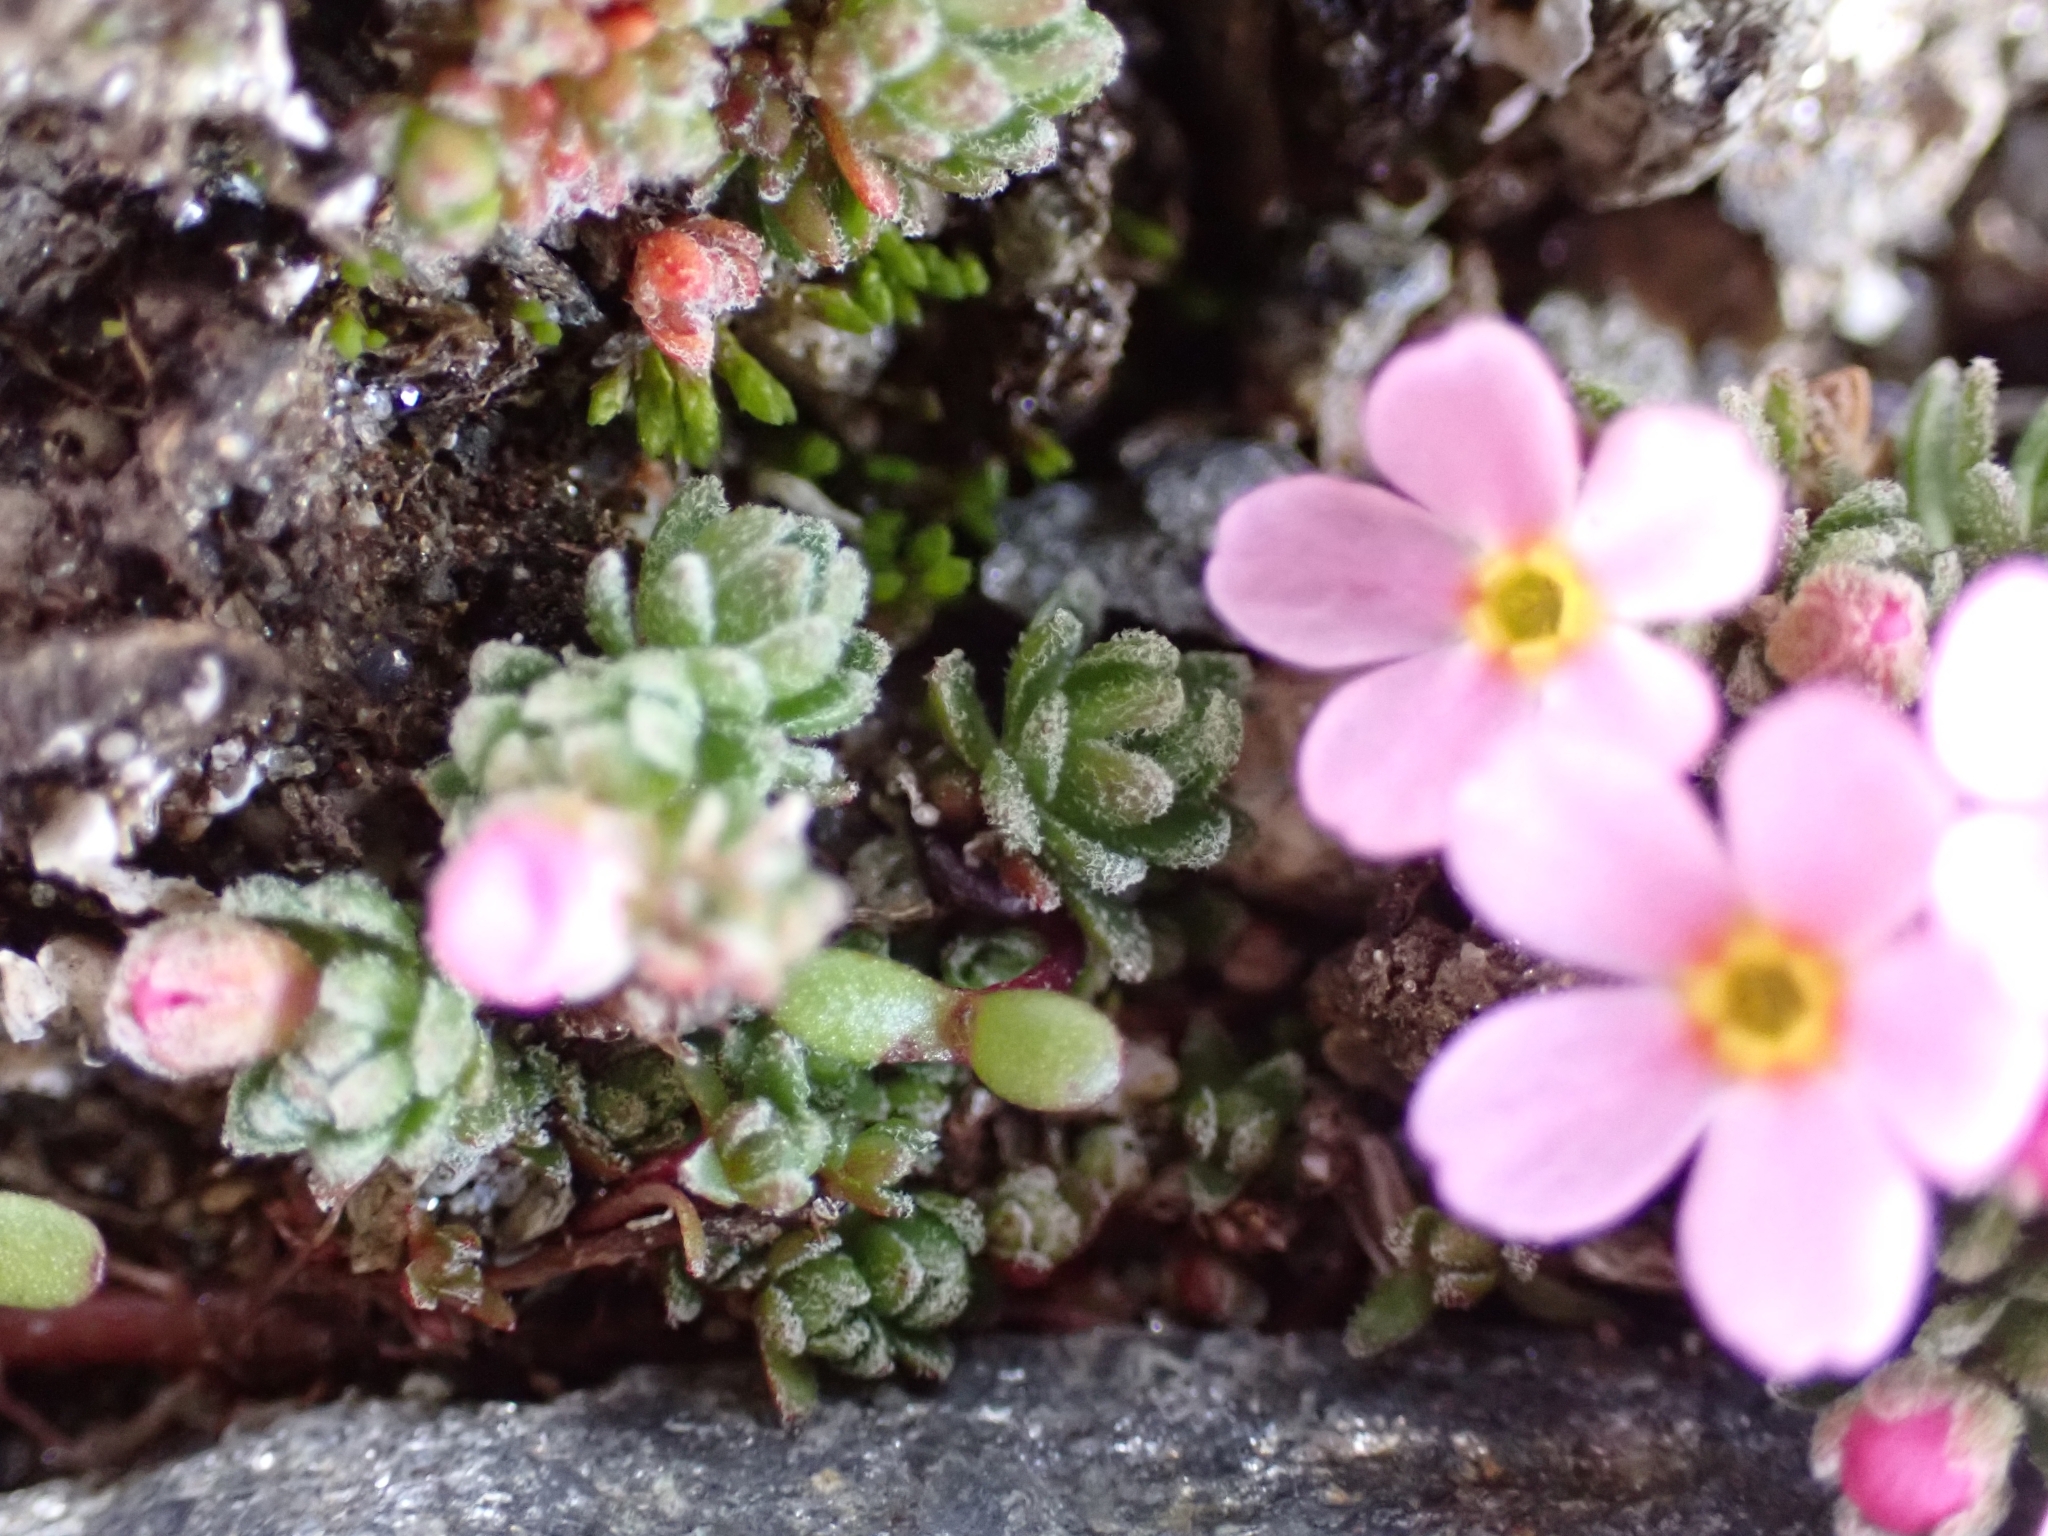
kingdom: Plantae
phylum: Tracheophyta
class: Magnoliopsida
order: Ericales
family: Primulaceae
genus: Androsace
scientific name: Androsace alpina
